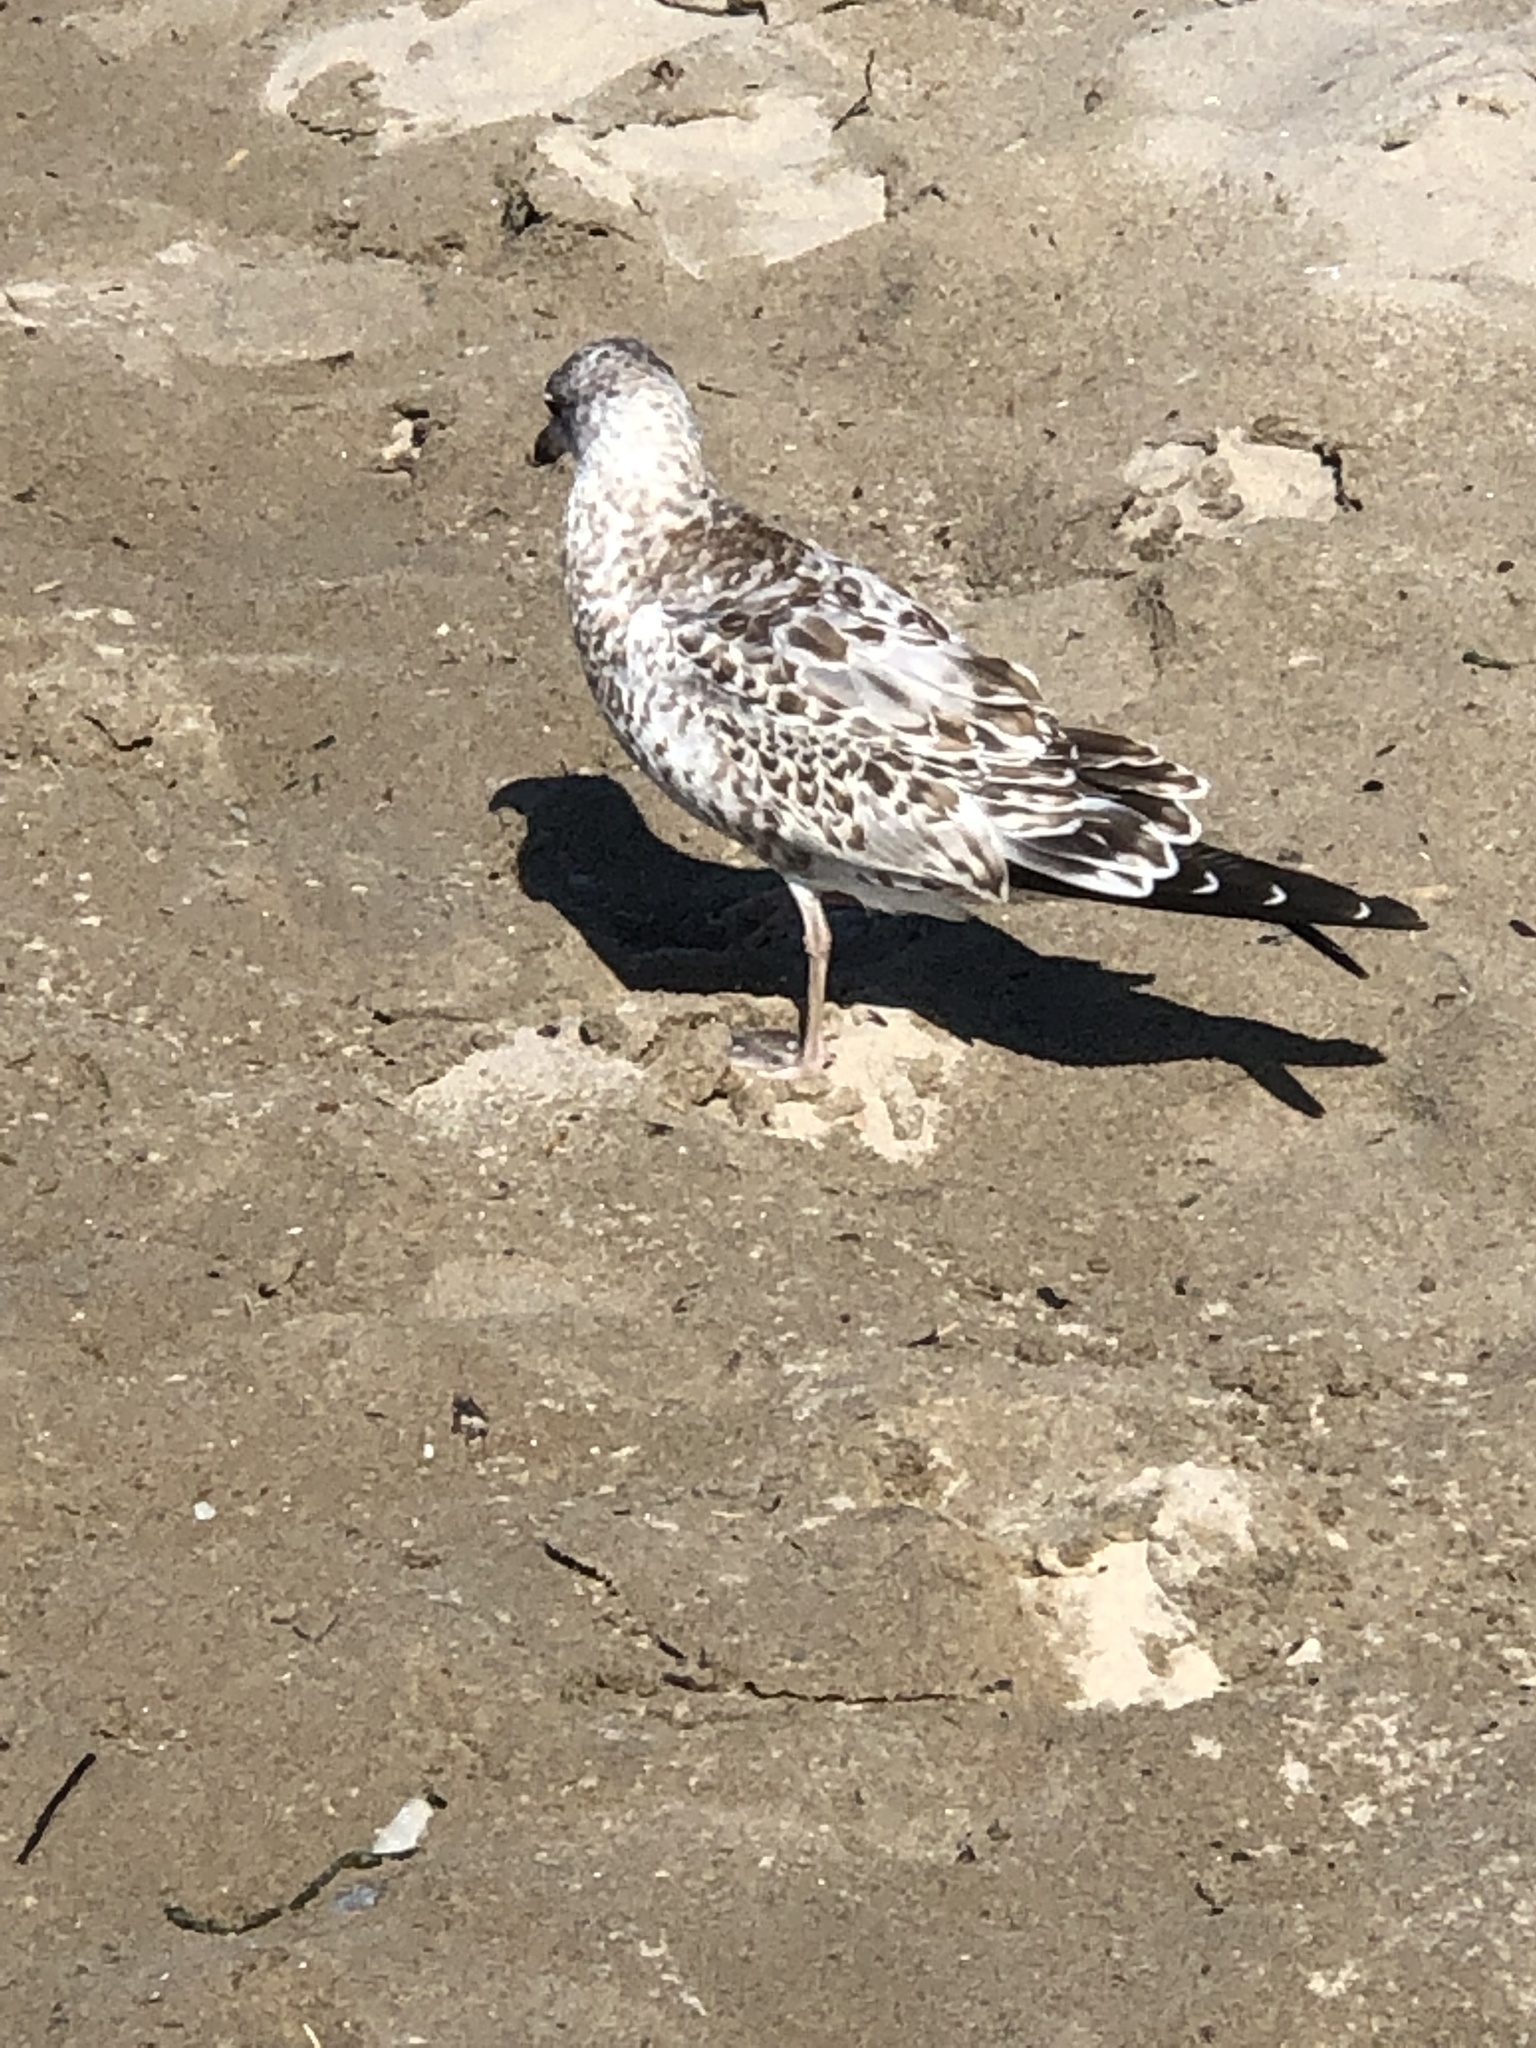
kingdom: Animalia
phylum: Chordata
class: Aves
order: Charadriiformes
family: Laridae
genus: Larus
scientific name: Larus delawarensis
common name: Ring-billed gull
